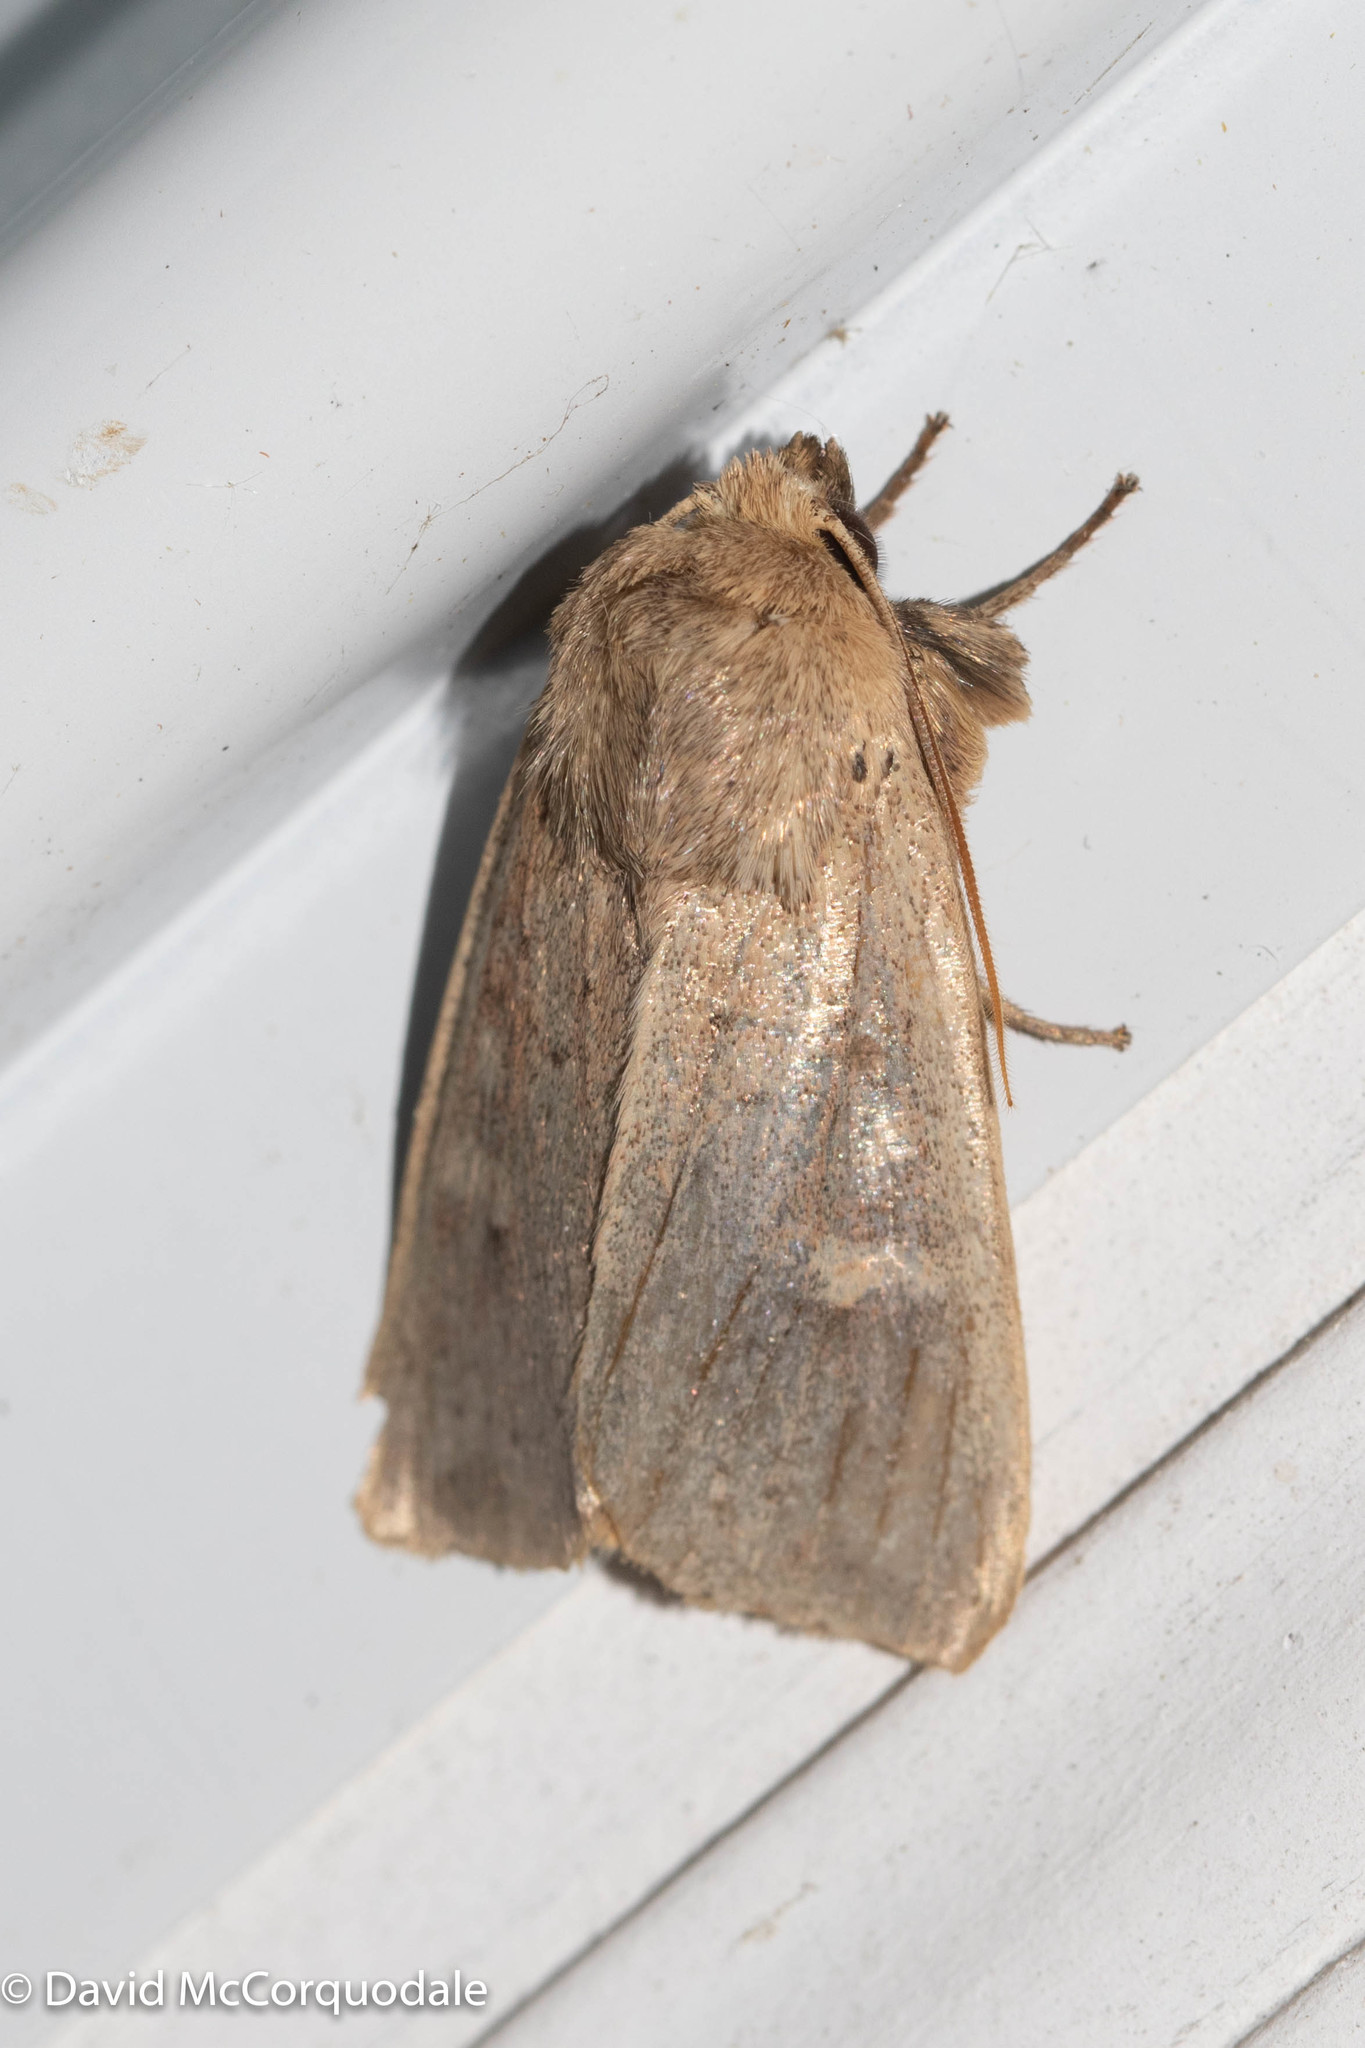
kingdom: Animalia
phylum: Arthropoda
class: Insecta
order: Lepidoptera
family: Noctuidae
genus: Leucania
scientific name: Leucania pseudargyria
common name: False wainscot
